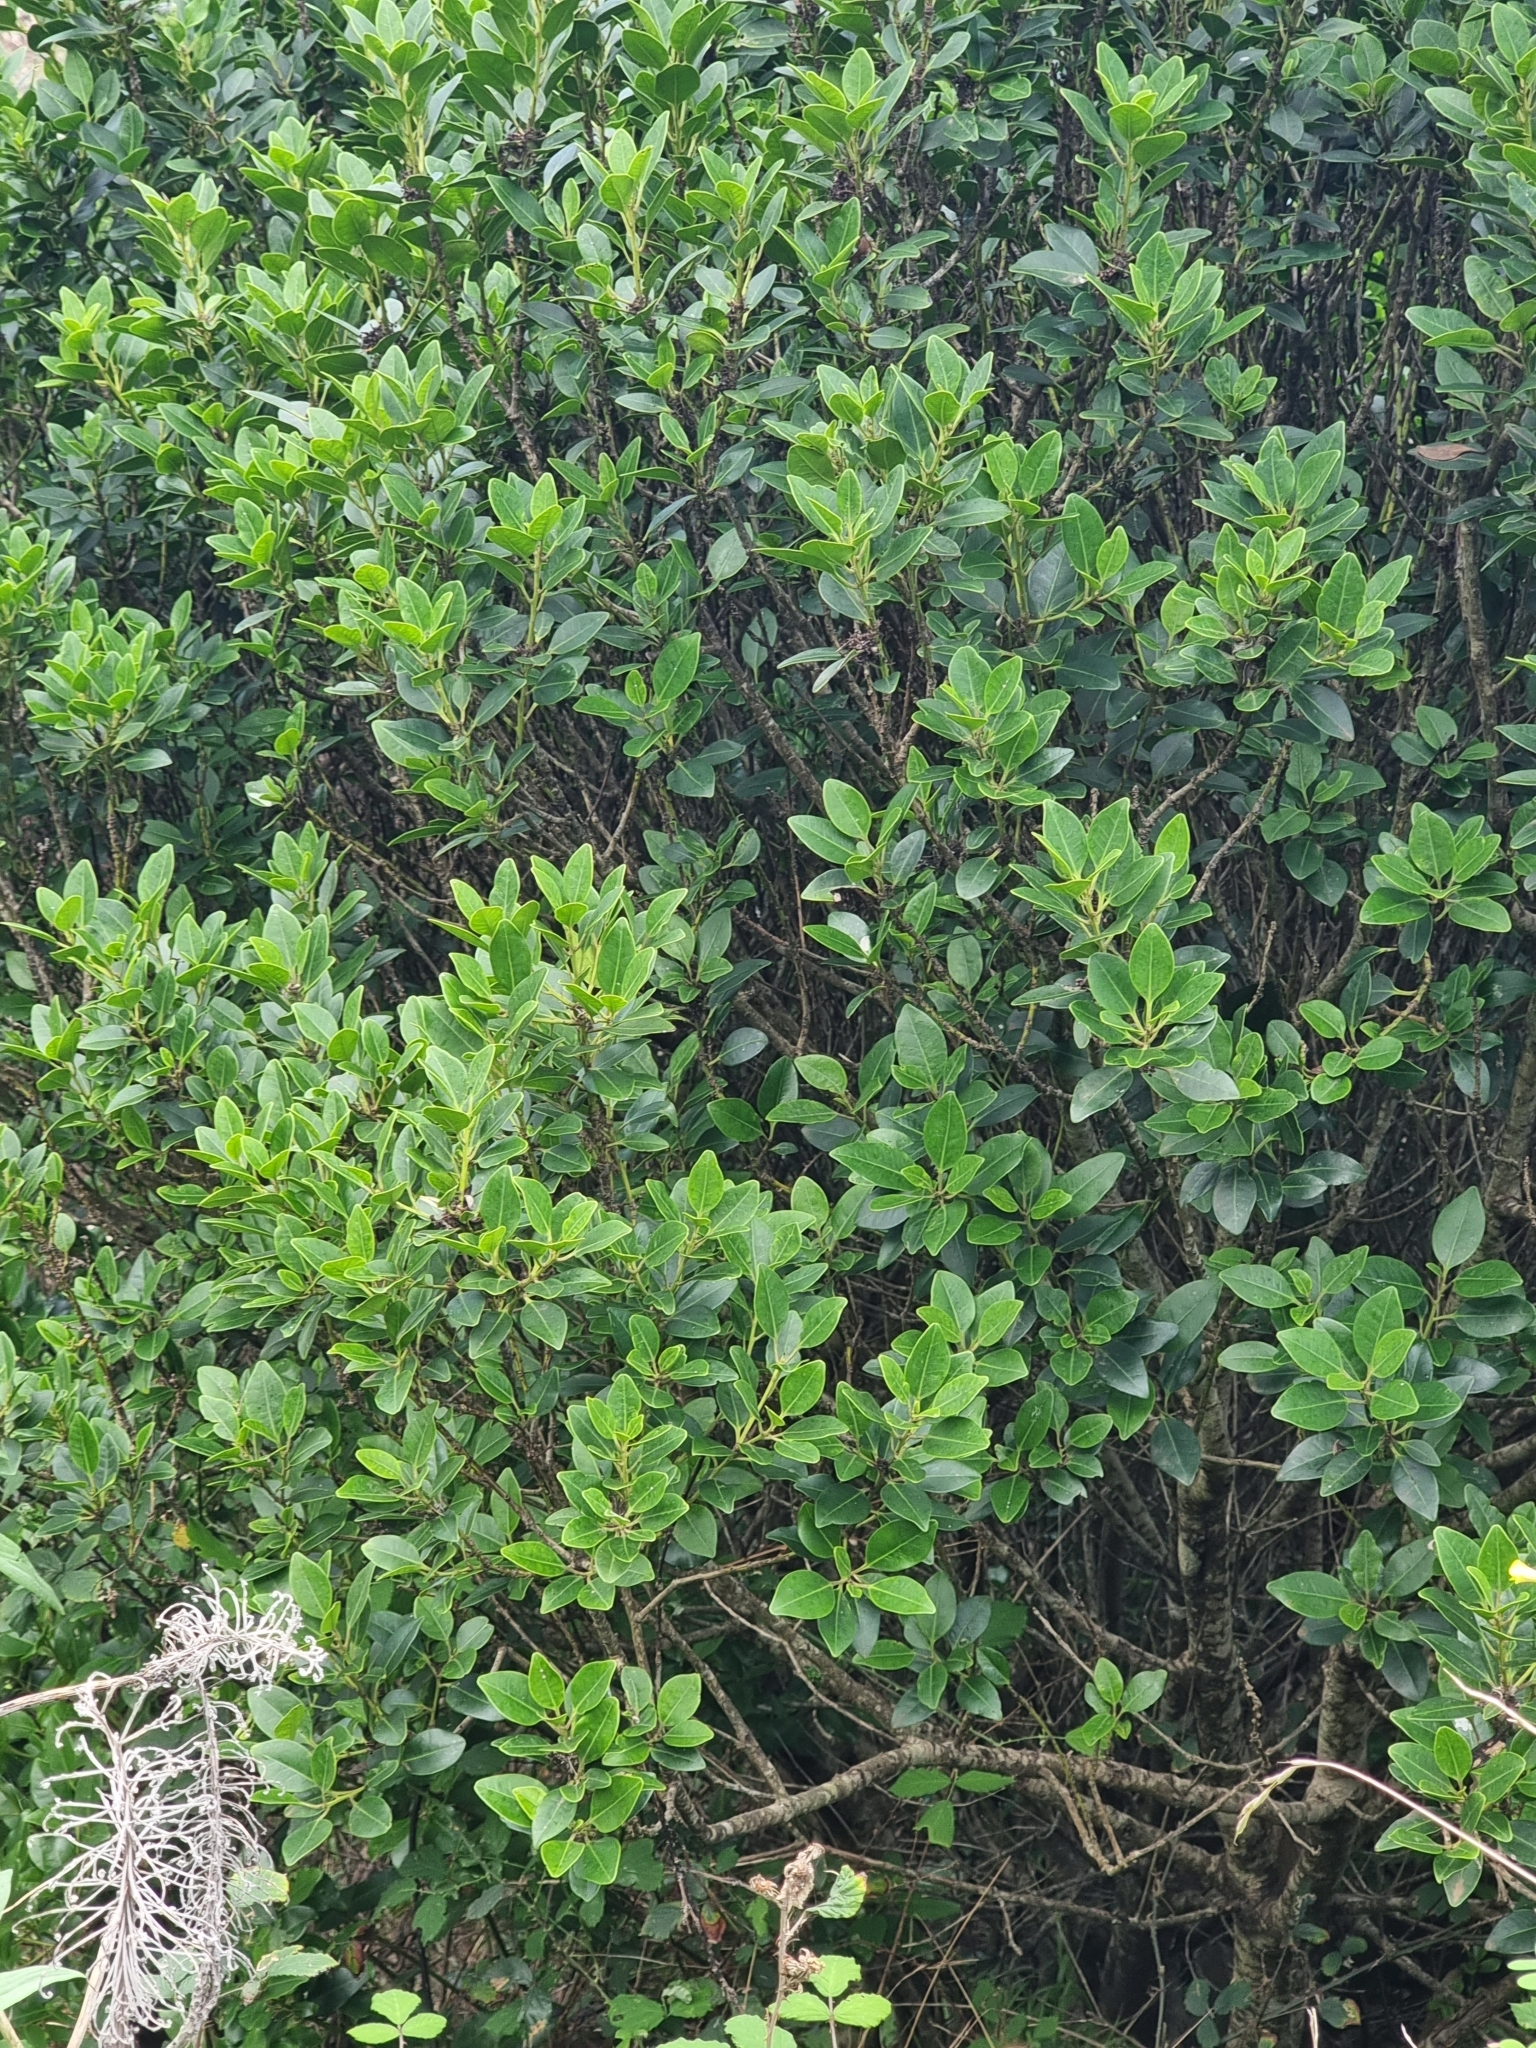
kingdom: Plantae
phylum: Tracheophyta
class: Magnoliopsida
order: Aquifoliales
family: Aquifoliaceae
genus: Ilex
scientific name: Ilex canariensis
